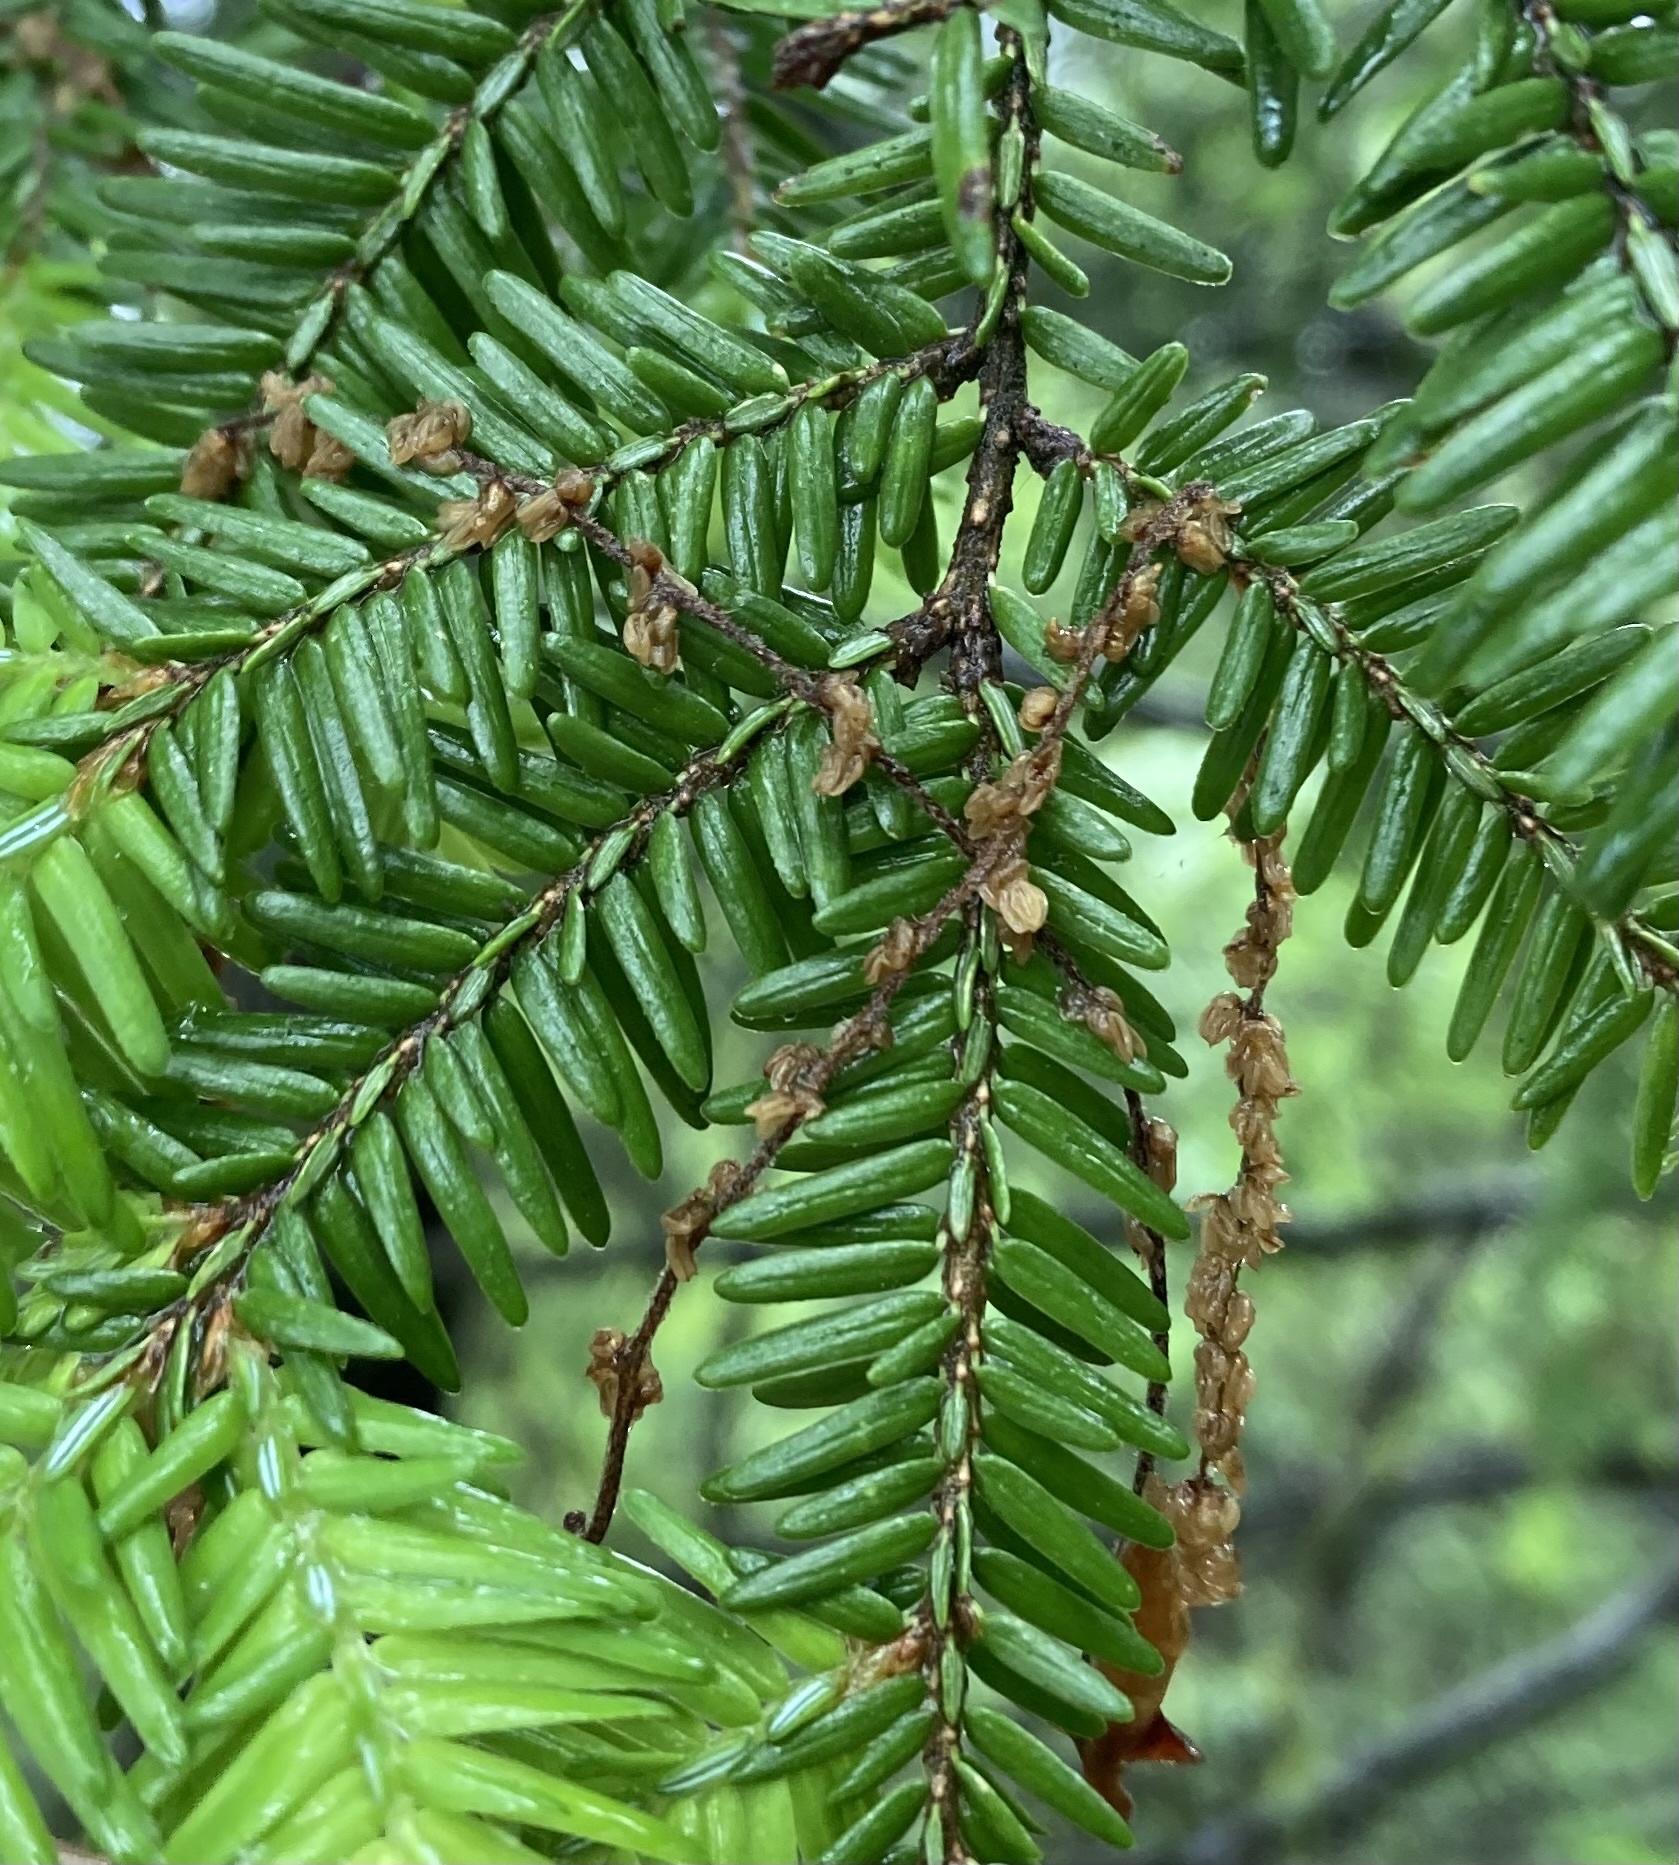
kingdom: Plantae
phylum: Tracheophyta
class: Pinopsida
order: Pinales
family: Pinaceae
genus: Tsuga
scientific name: Tsuga canadensis
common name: Eastern hemlock
